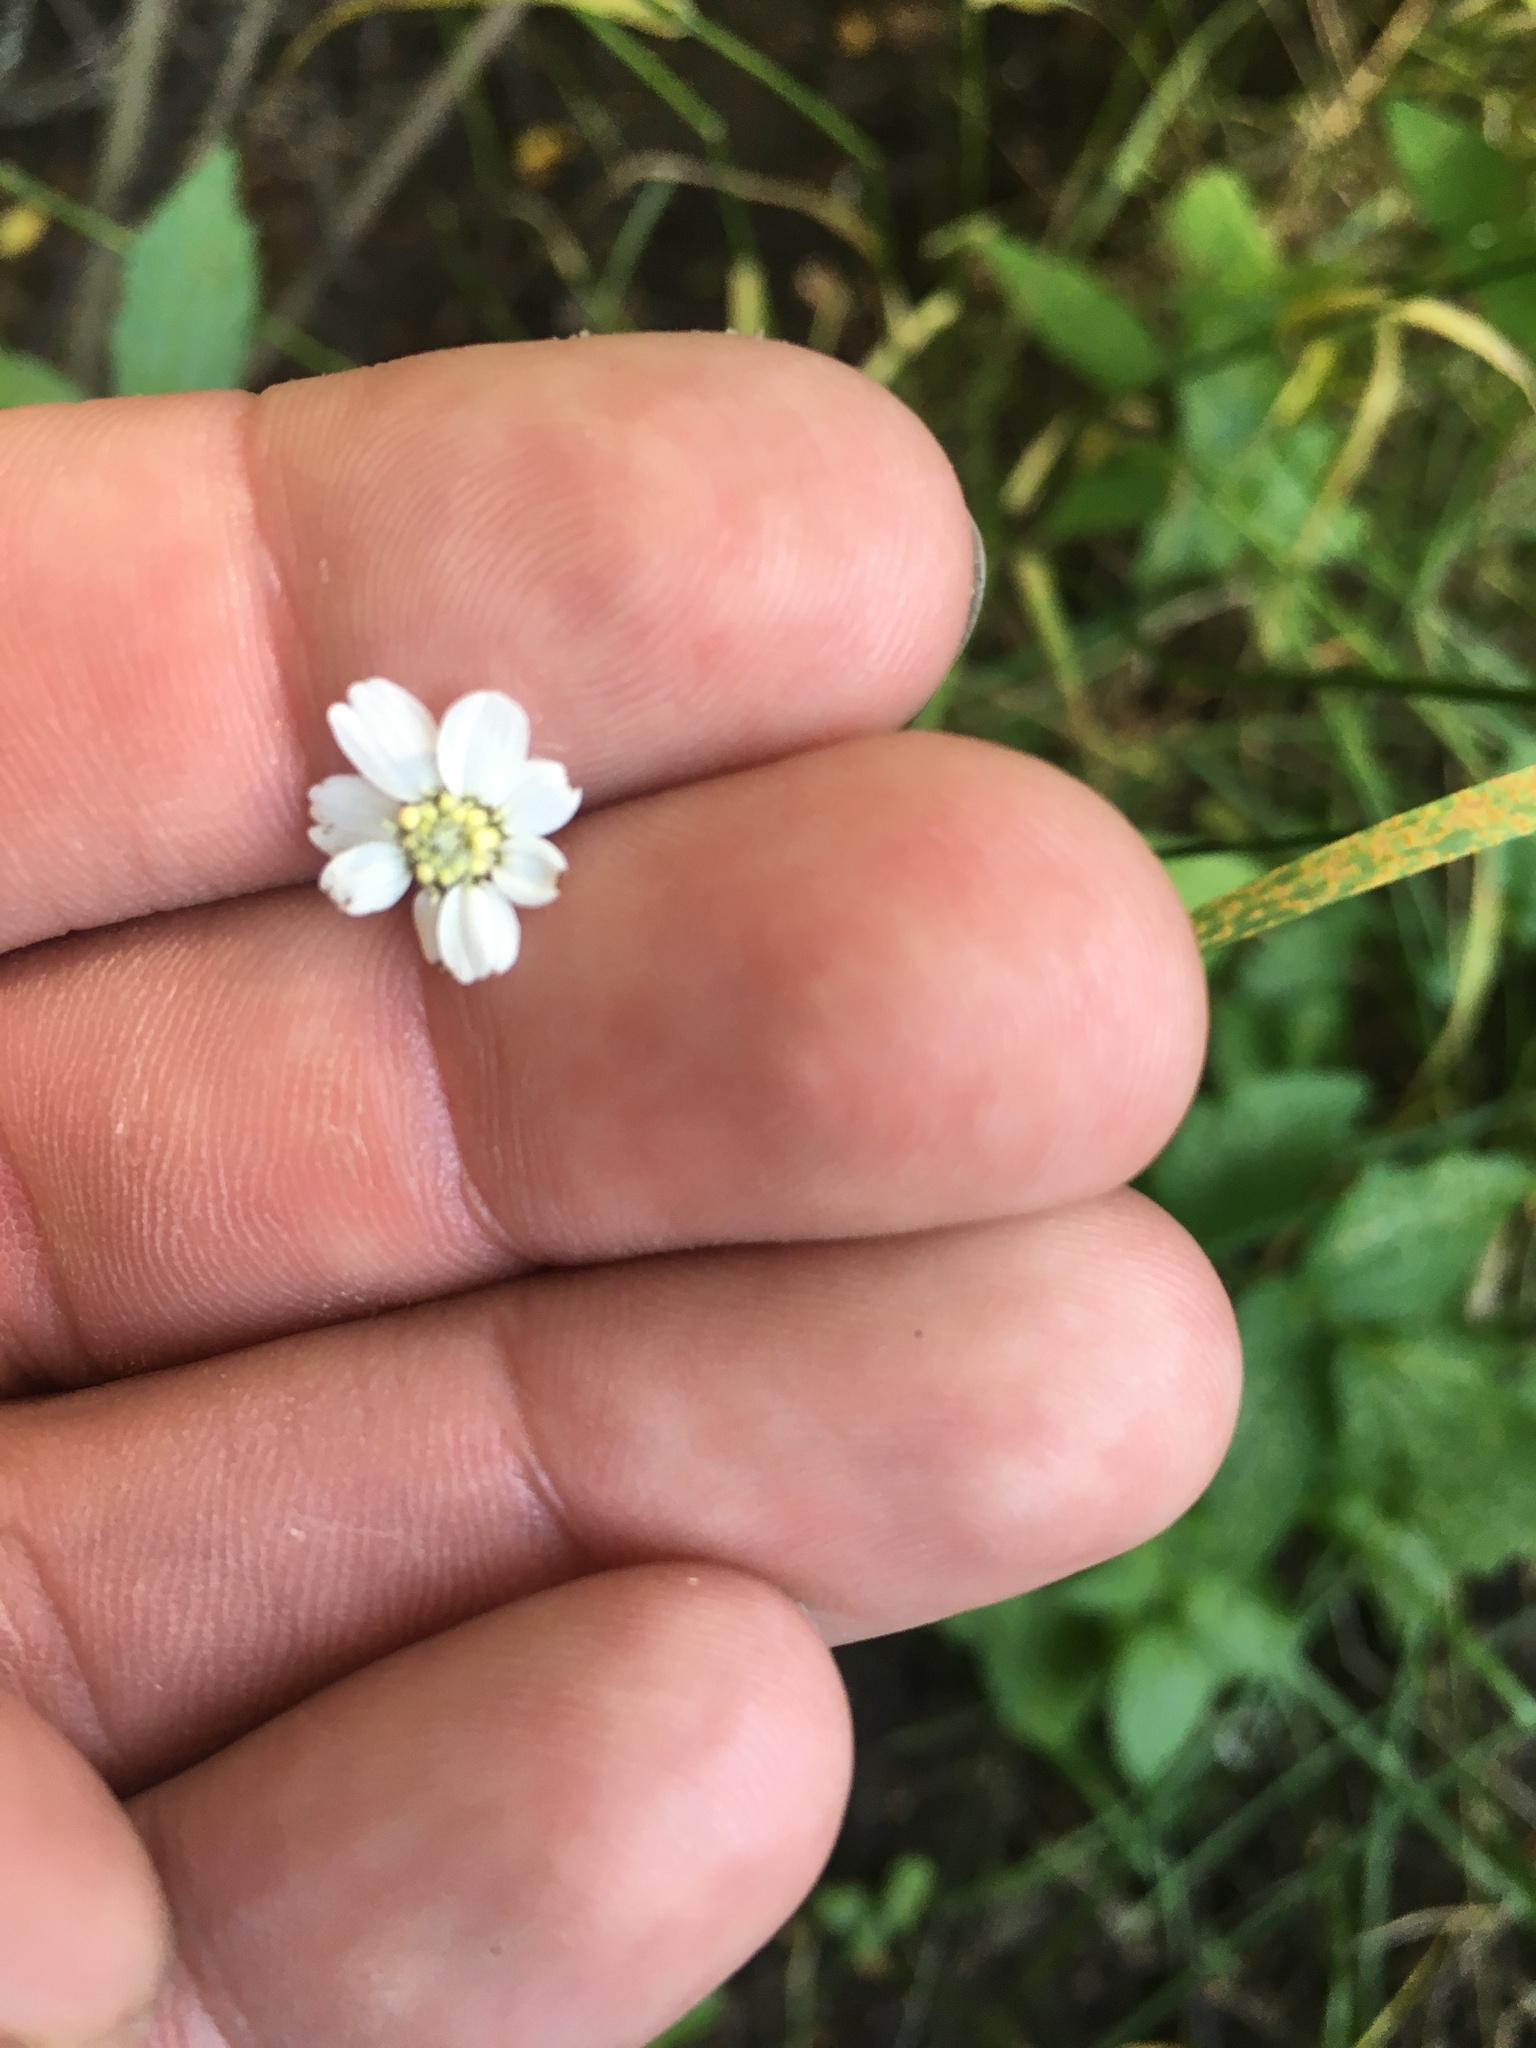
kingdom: Plantae
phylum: Tracheophyta
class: Magnoliopsida
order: Asterales
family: Asteraceae
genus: Achillea
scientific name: Achillea ptarmica
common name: Sneezeweed
